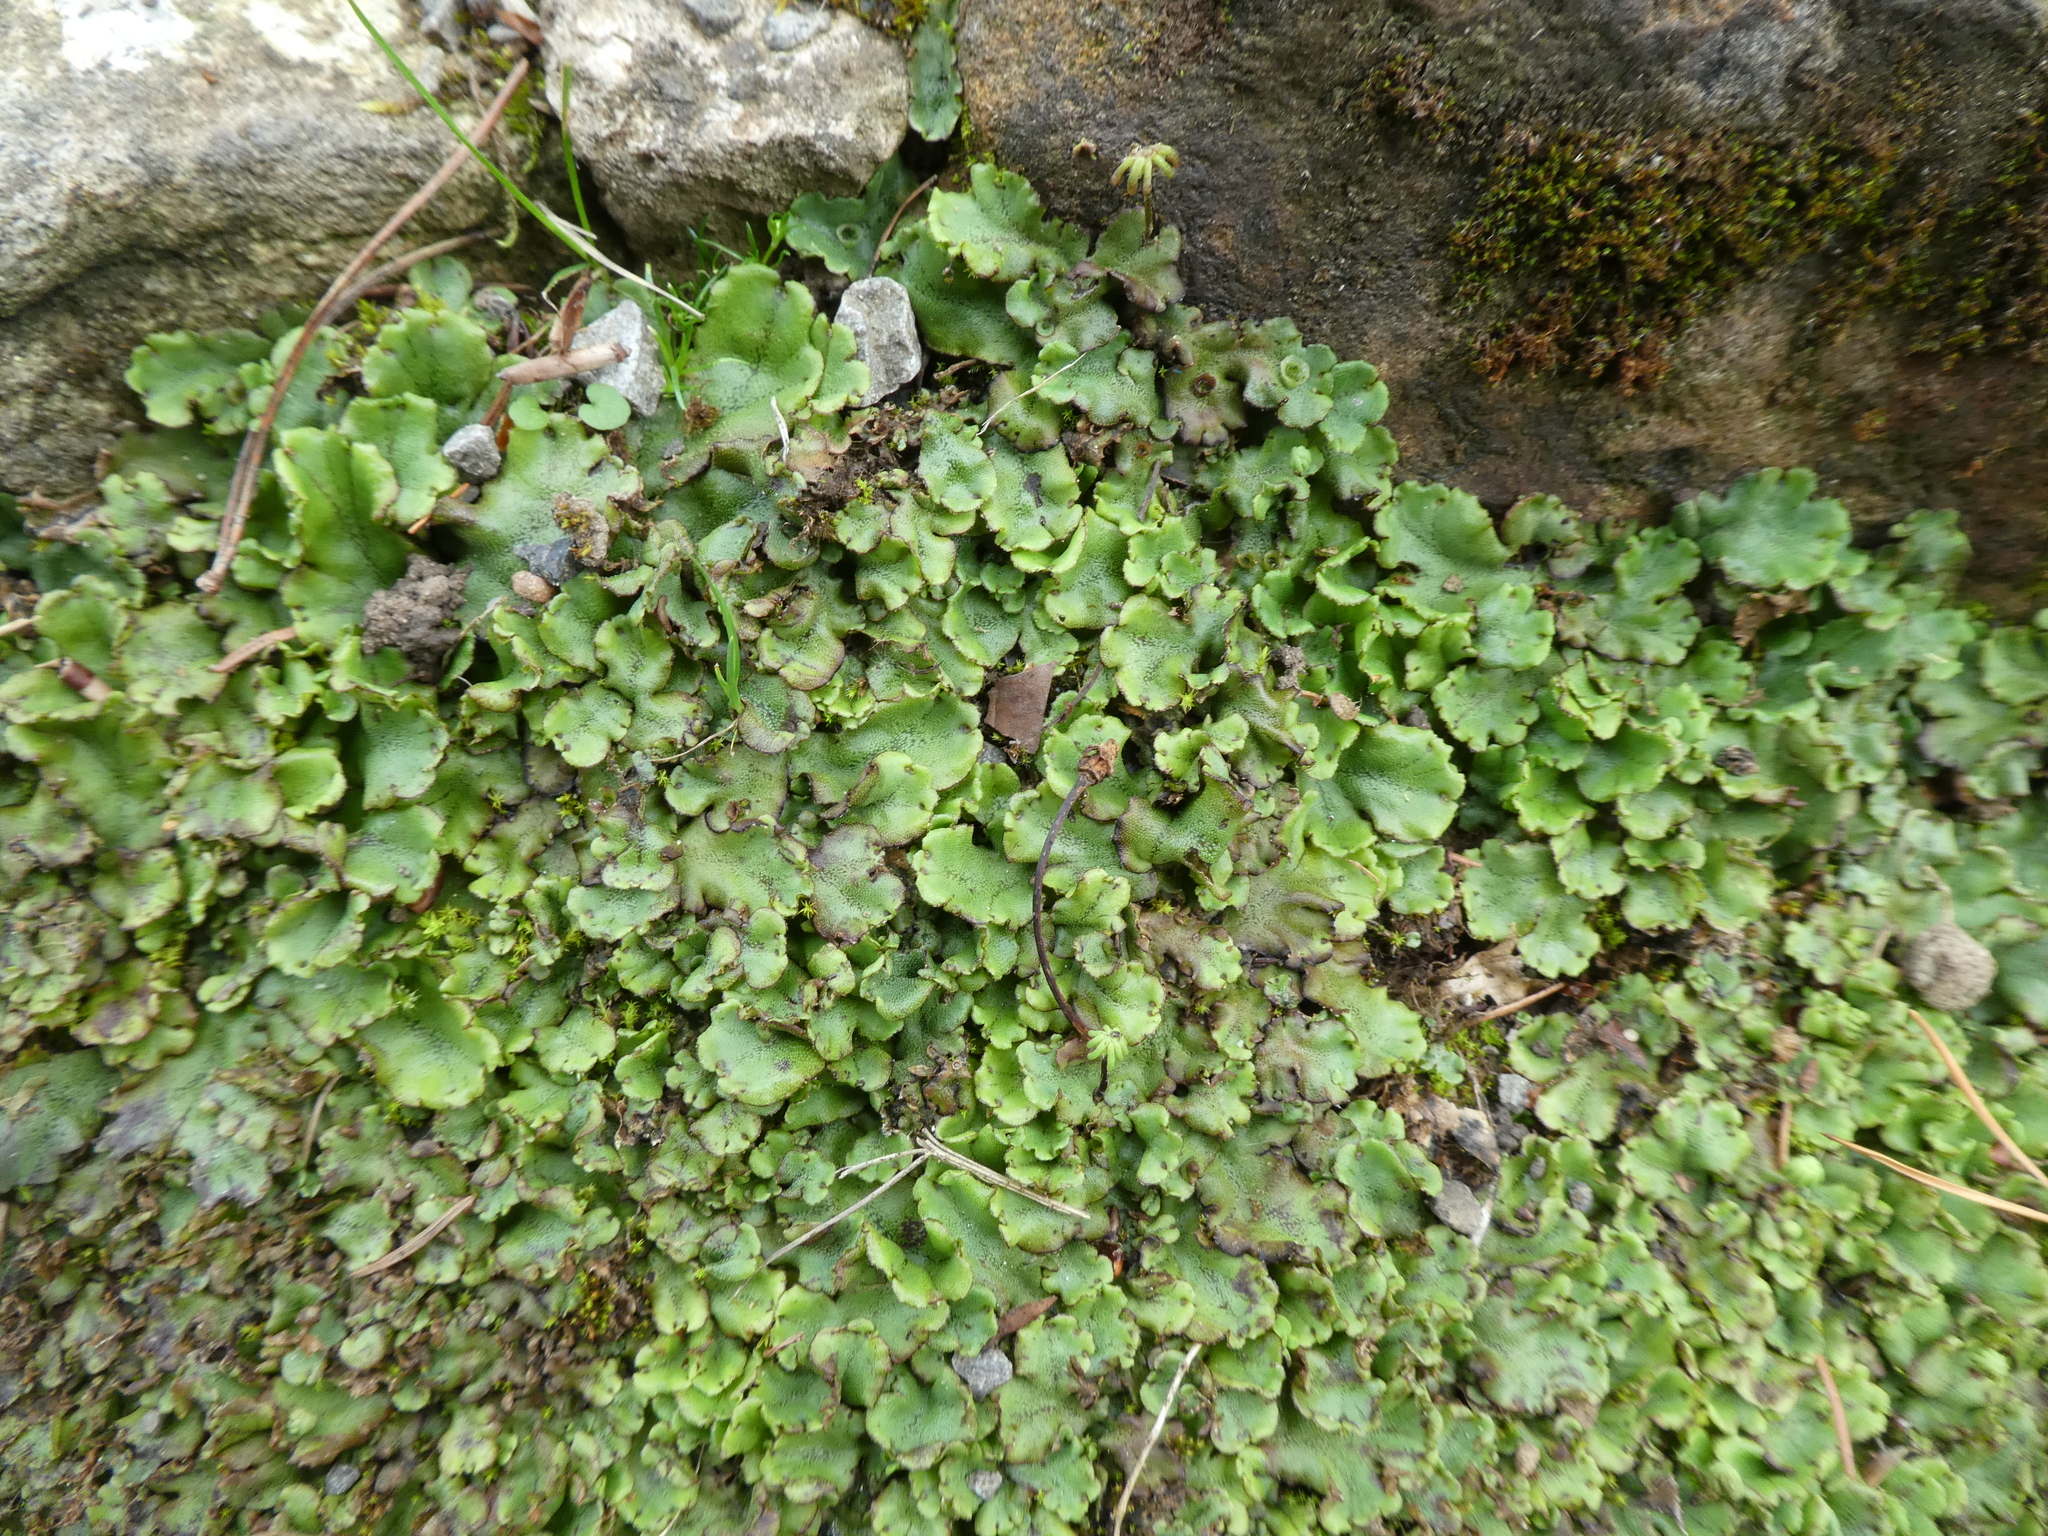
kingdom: Plantae
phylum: Marchantiophyta
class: Marchantiopsida
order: Marchantiales
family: Marchantiaceae
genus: Marchantia
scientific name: Marchantia polymorpha
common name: Common liverwort
